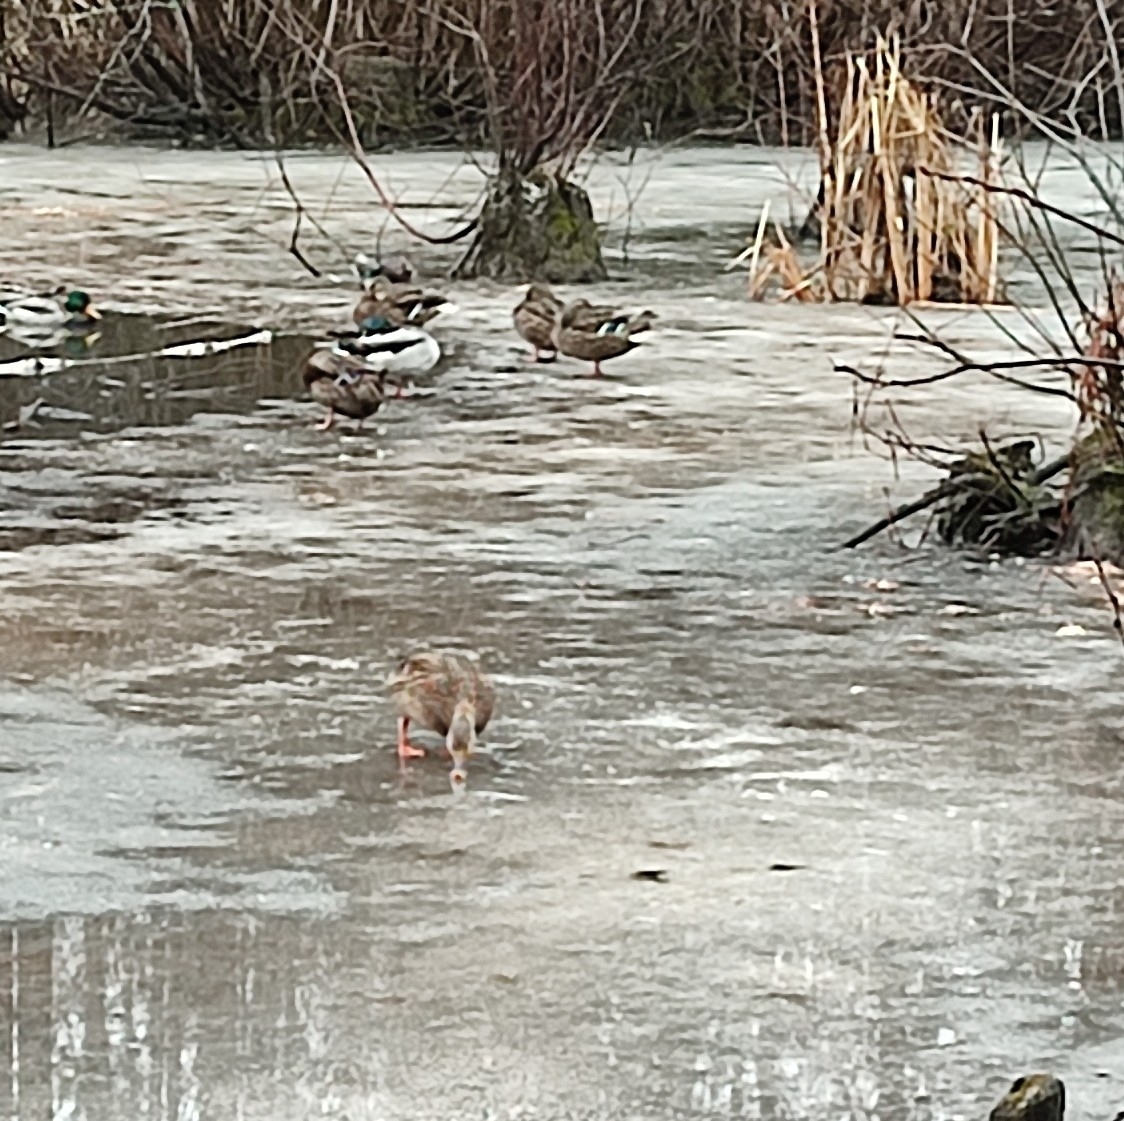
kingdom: Animalia
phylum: Chordata
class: Aves
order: Anseriformes
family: Anatidae
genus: Anas
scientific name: Anas platyrhynchos
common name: Mallard
